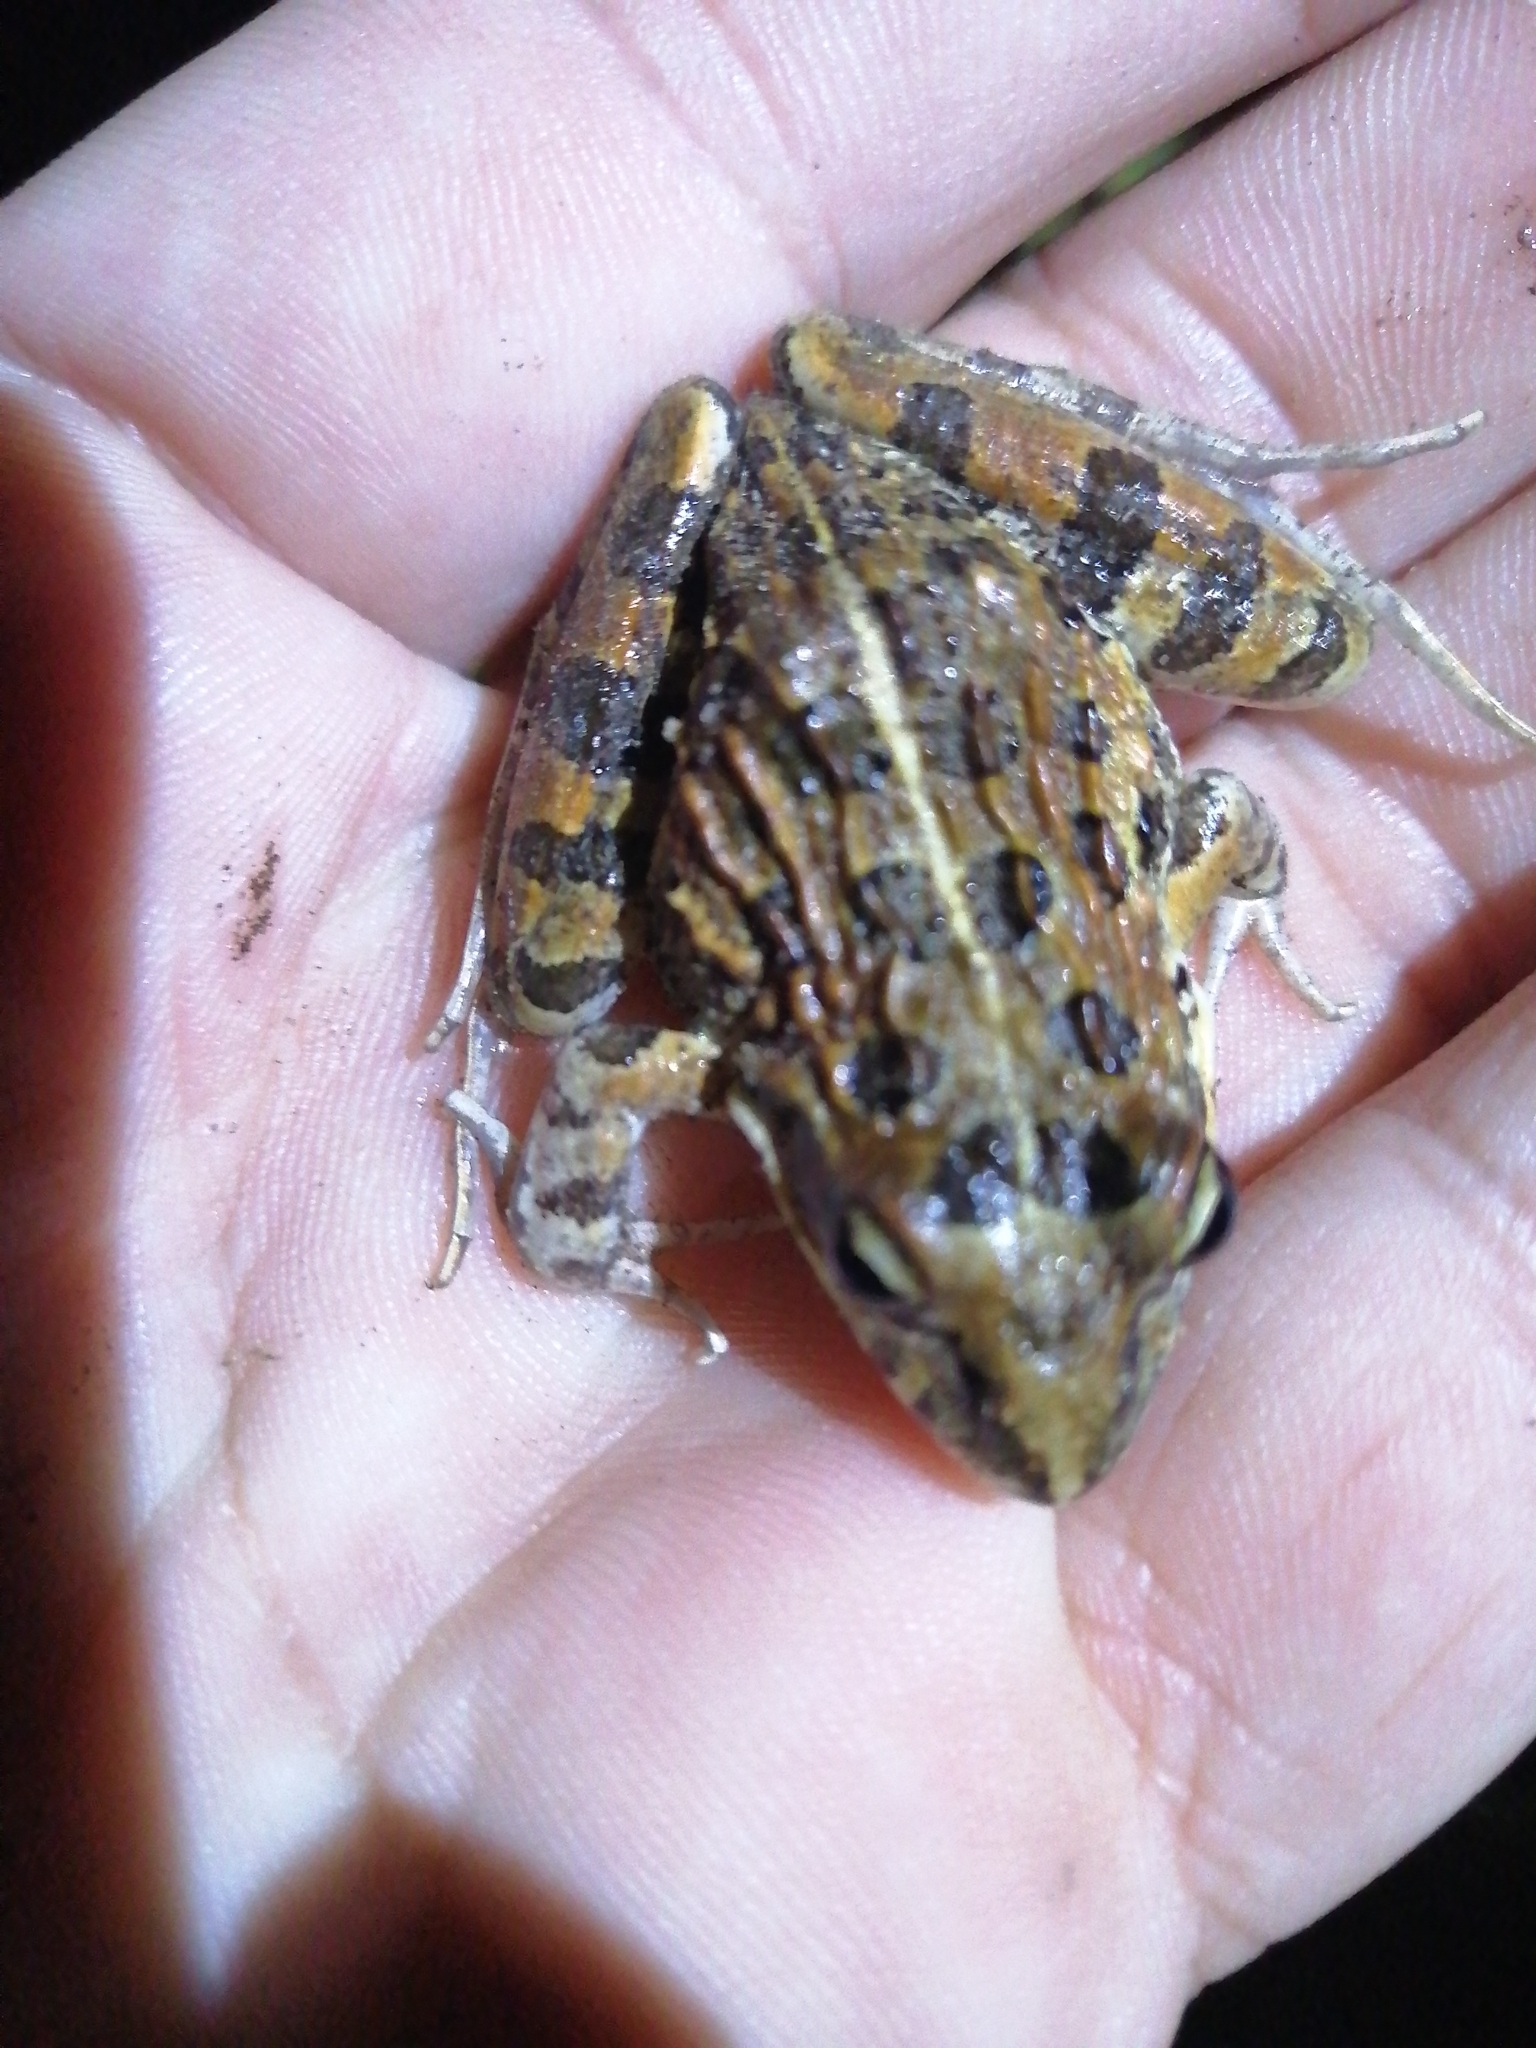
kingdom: Animalia
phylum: Chordata
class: Amphibia
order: Anura
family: Pyxicephalidae
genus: Strongylopus
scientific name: Strongylopus grayii
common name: Gray's stream frog
